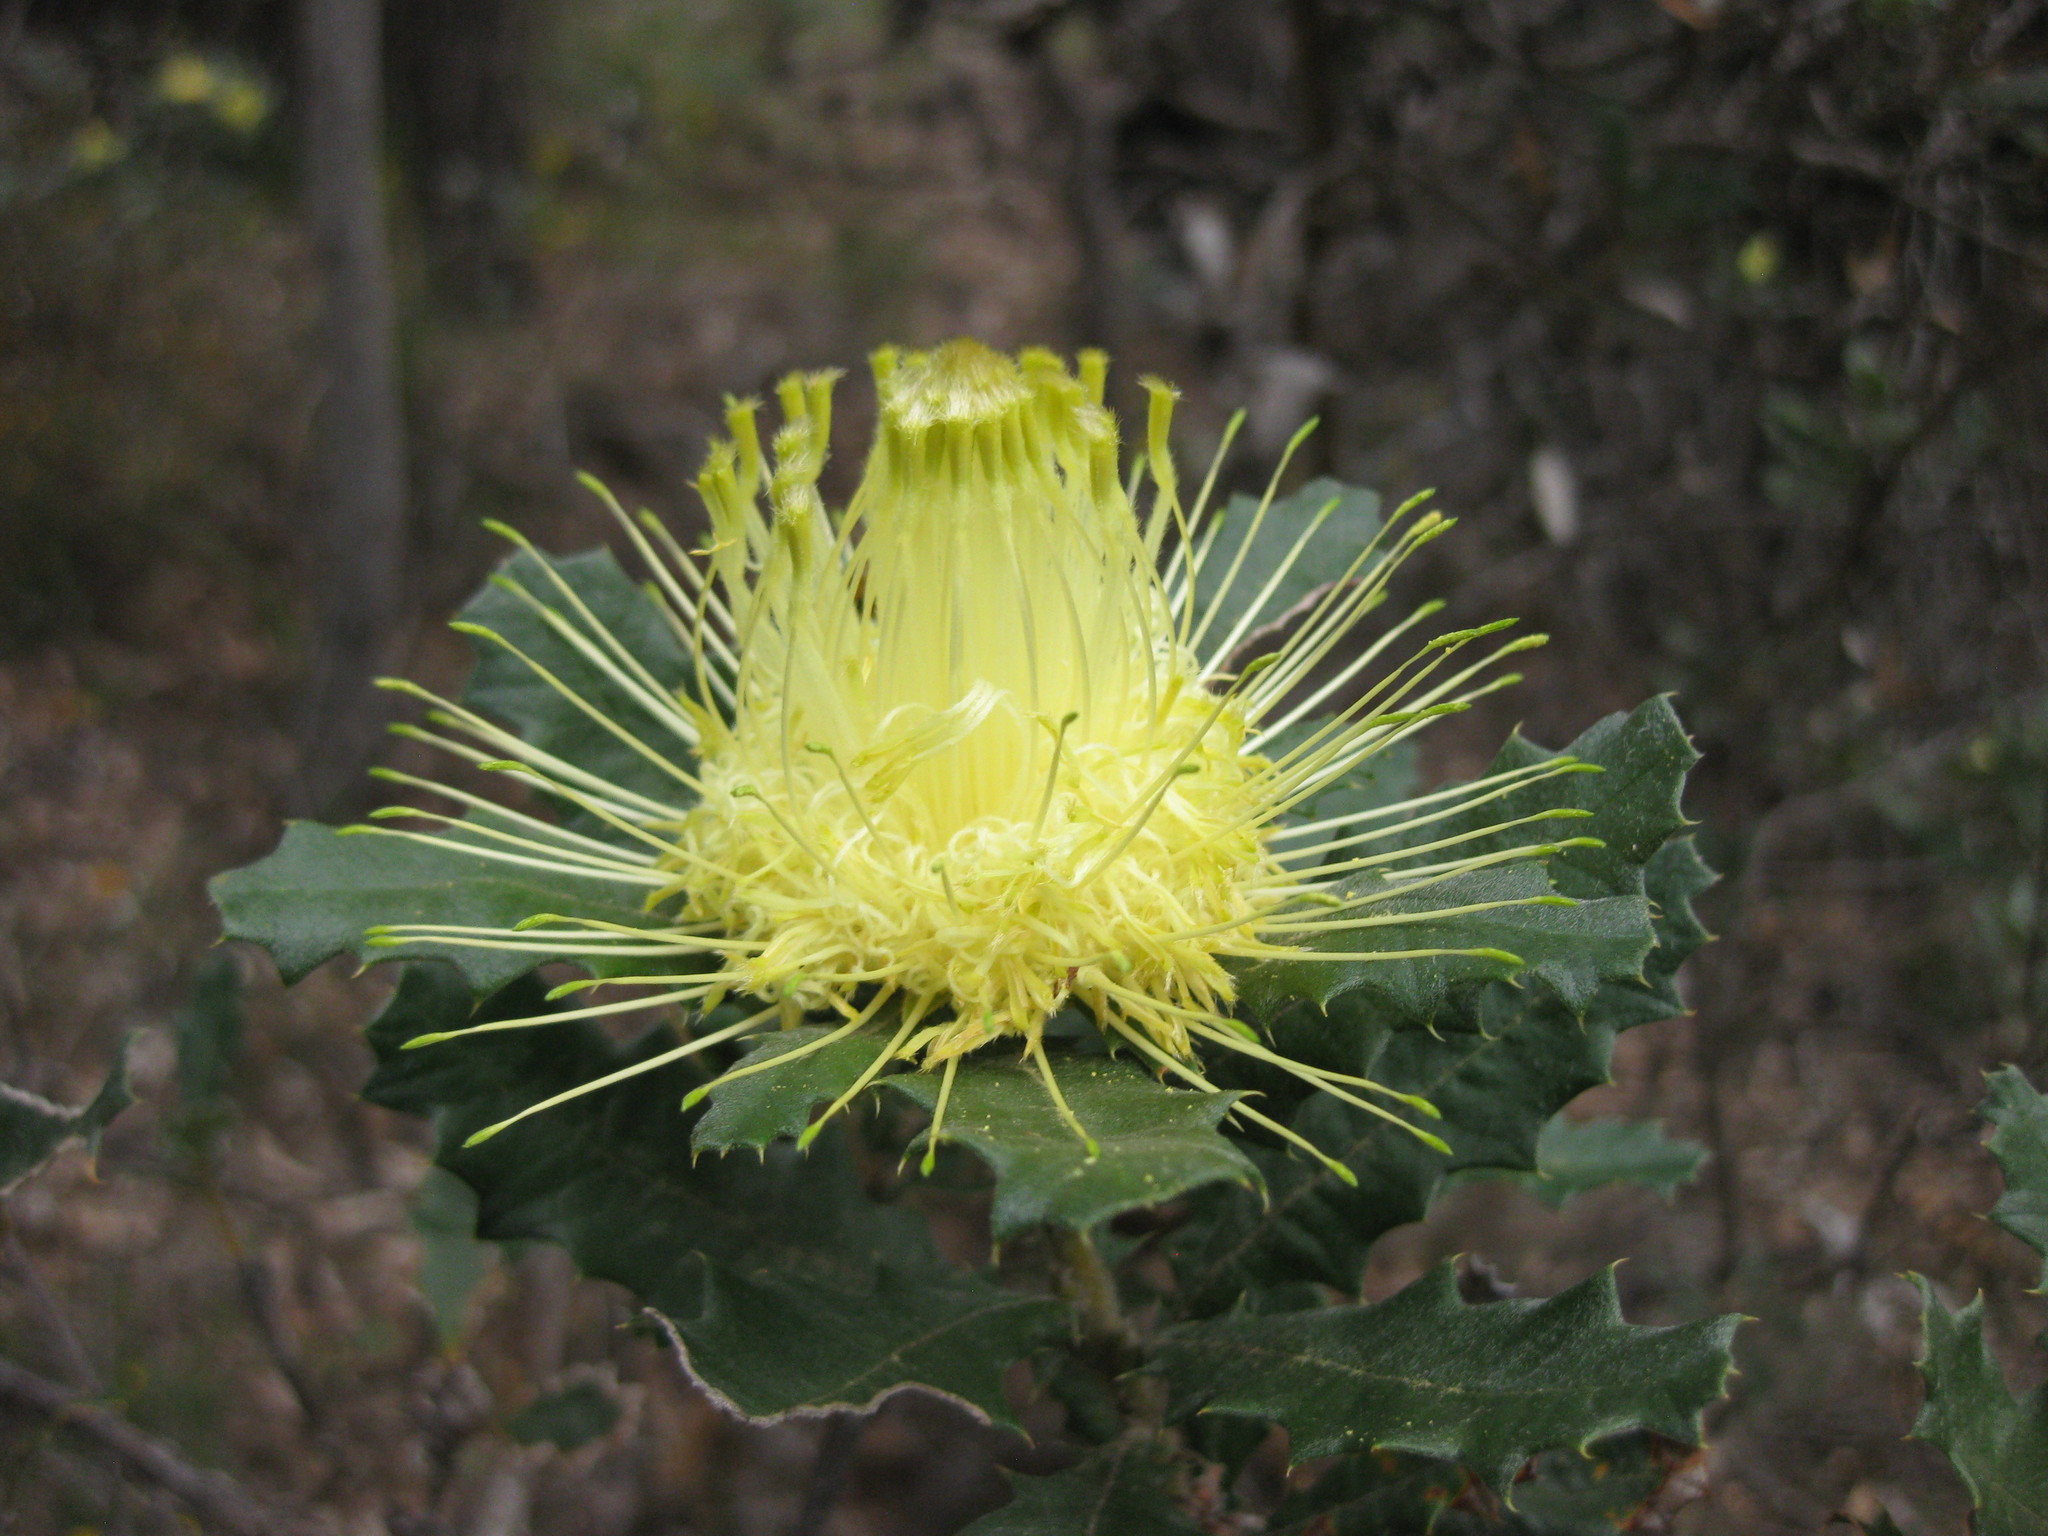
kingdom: Plantae
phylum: Tracheophyta
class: Magnoliopsida
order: Proteales
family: Proteaceae
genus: Banksia
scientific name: Banksia undata
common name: Cut-leaf dryandra
